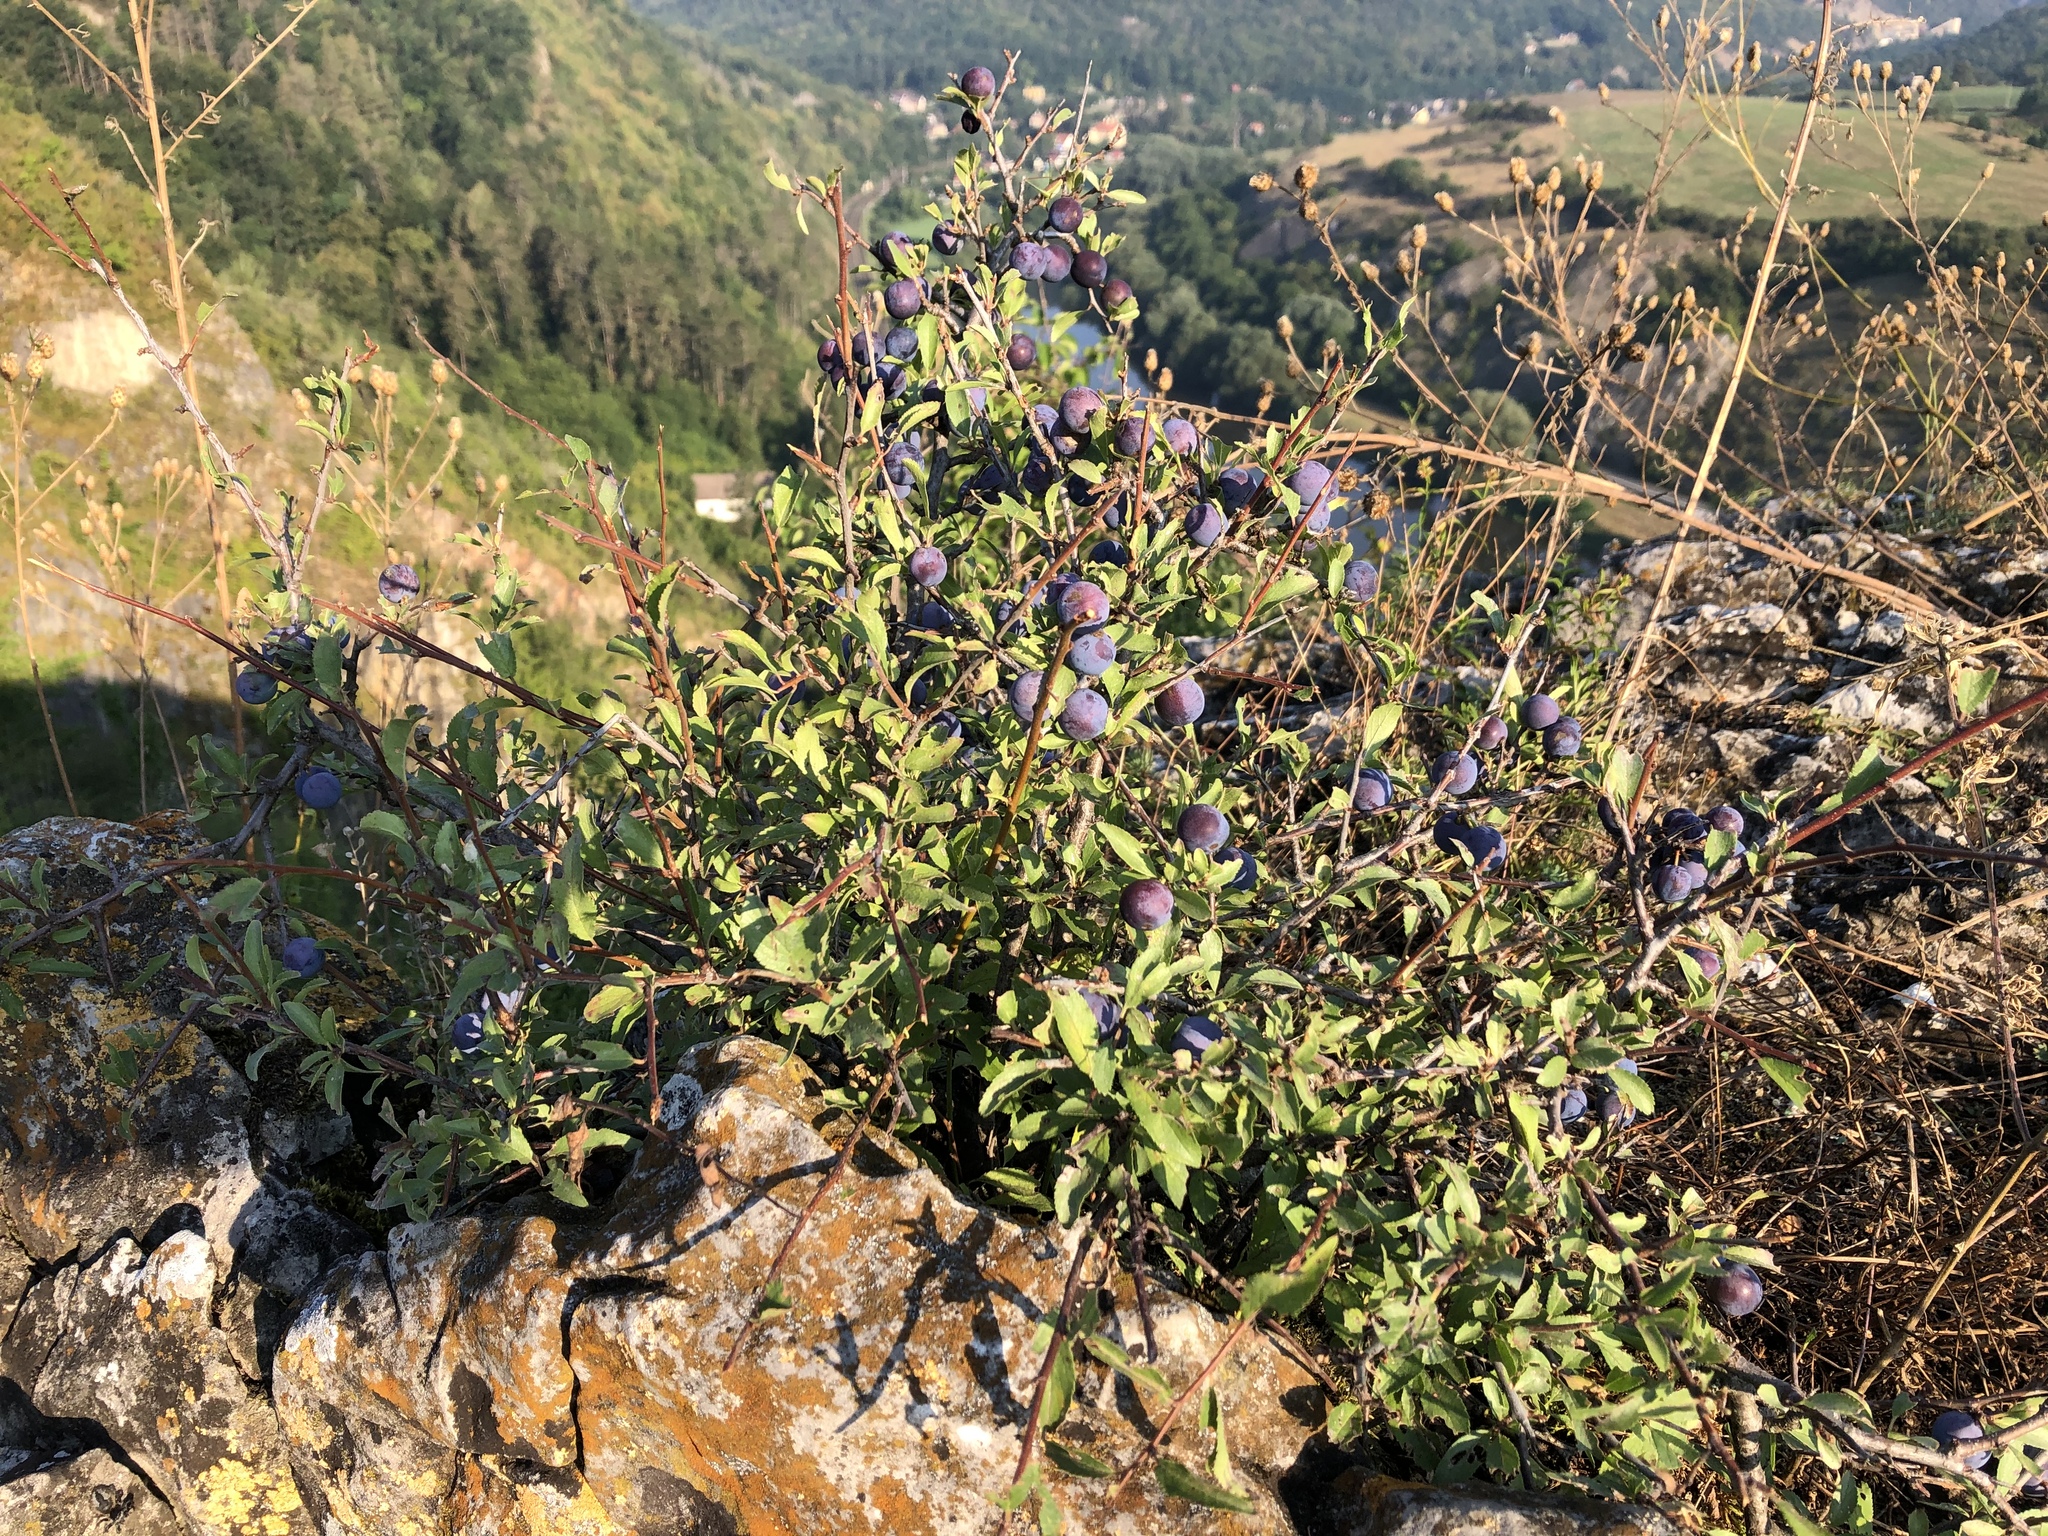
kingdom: Plantae
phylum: Tracheophyta
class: Magnoliopsida
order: Rosales
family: Rosaceae
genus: Prunus
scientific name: Prunus spinosa
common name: Blackthorn
